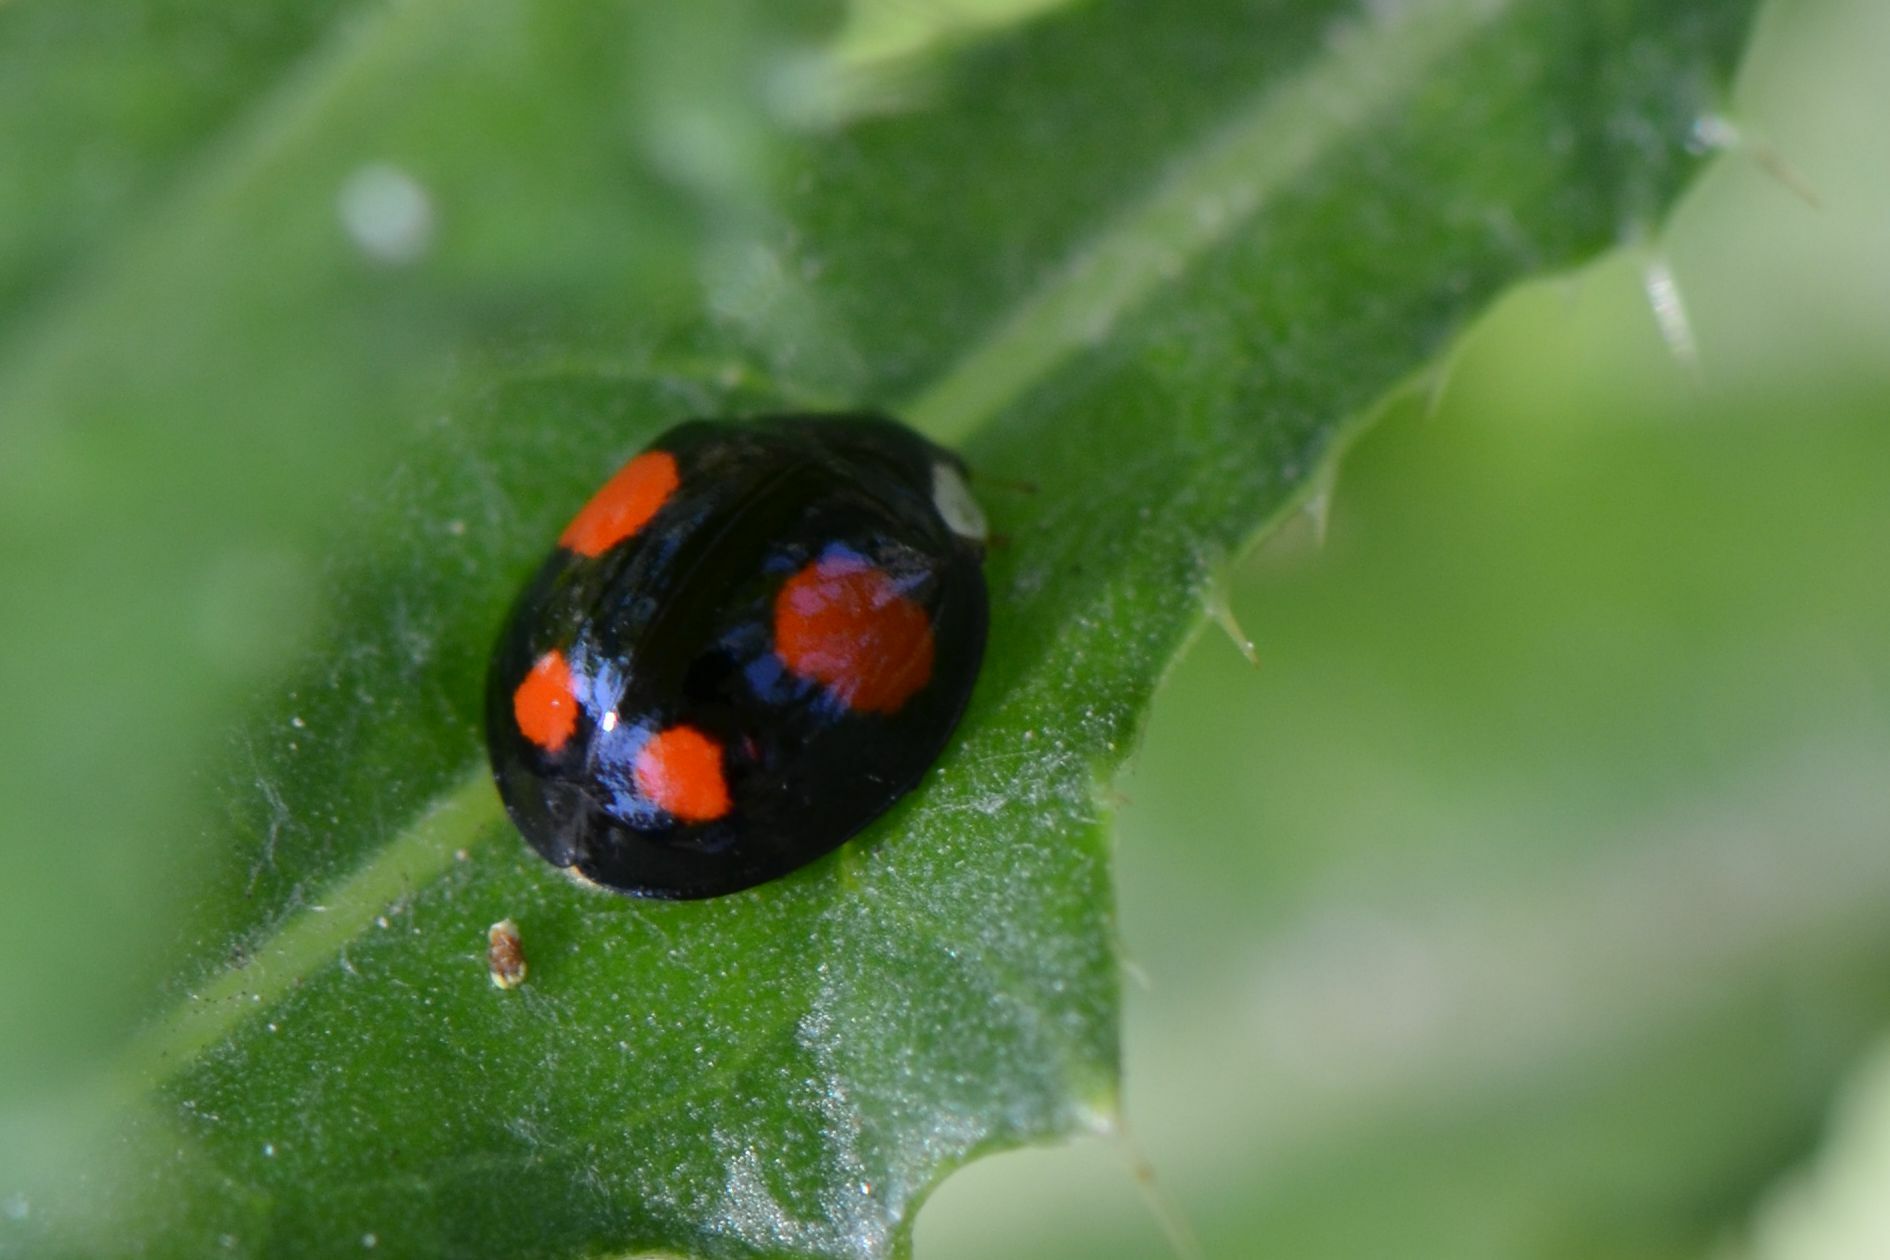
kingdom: Animalia
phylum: Arthropoda
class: Insecta
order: Coleoptera
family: Coccinellidae
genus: Harmonia
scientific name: Harmonia axyridis
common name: Harlequin ladybird
